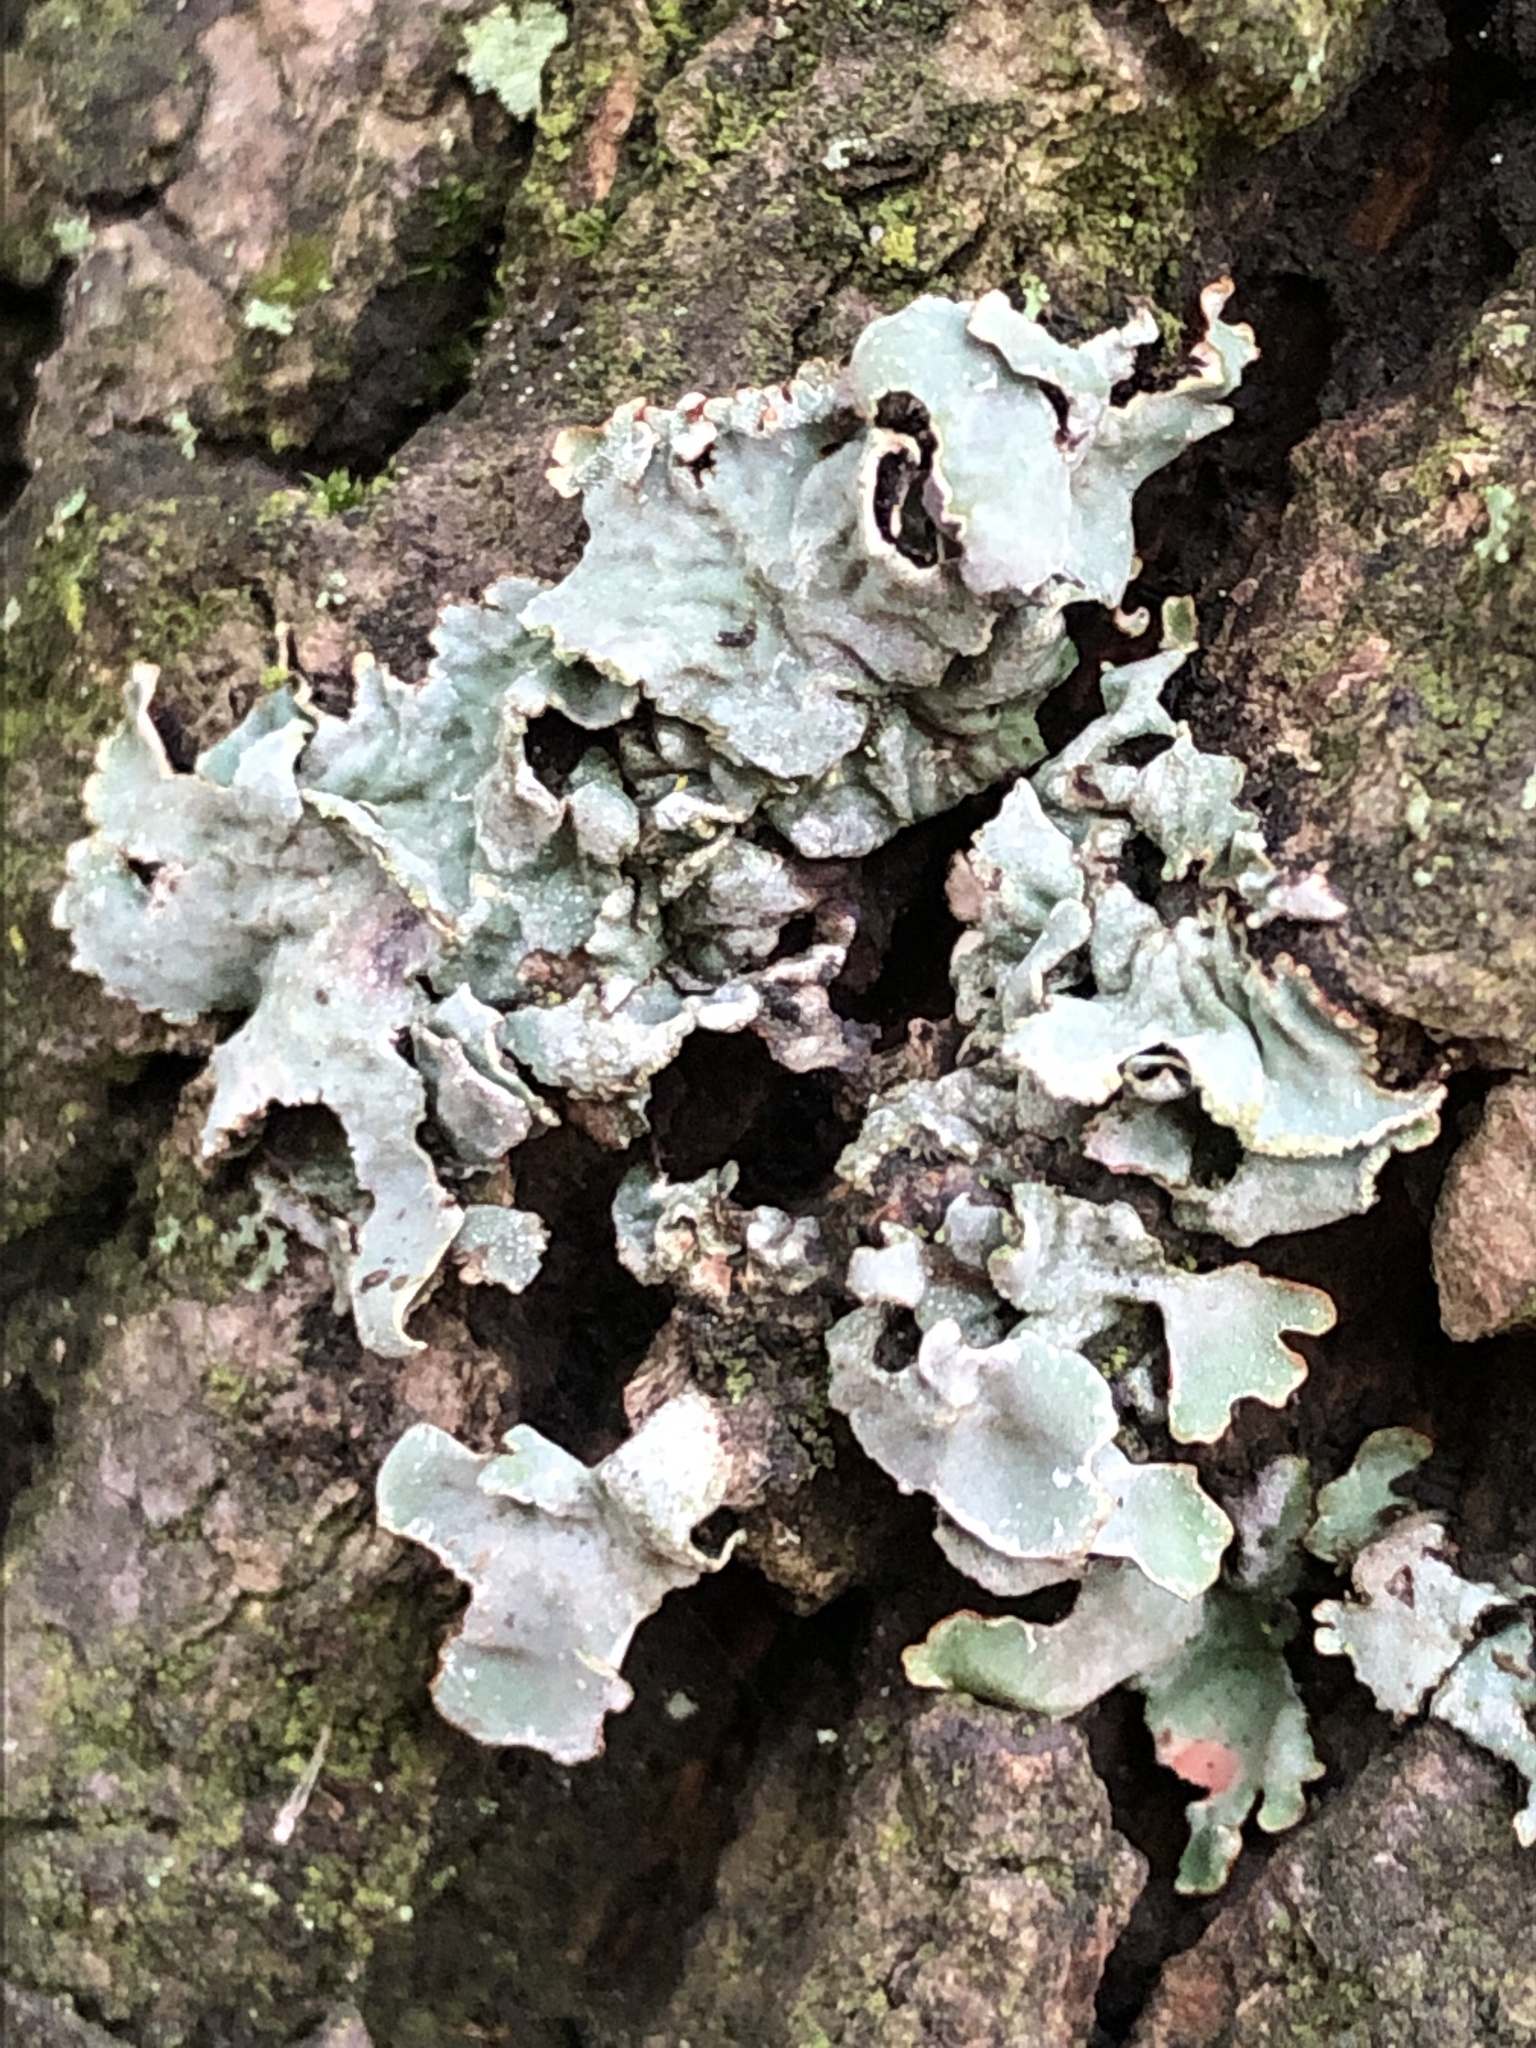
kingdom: Fungi
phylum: Ascomycota
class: Lecanoromycetes
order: Lecanorales
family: Parmeliaceae
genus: Parmelia
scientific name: Parmelia sulcata
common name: Netted shield lichen
